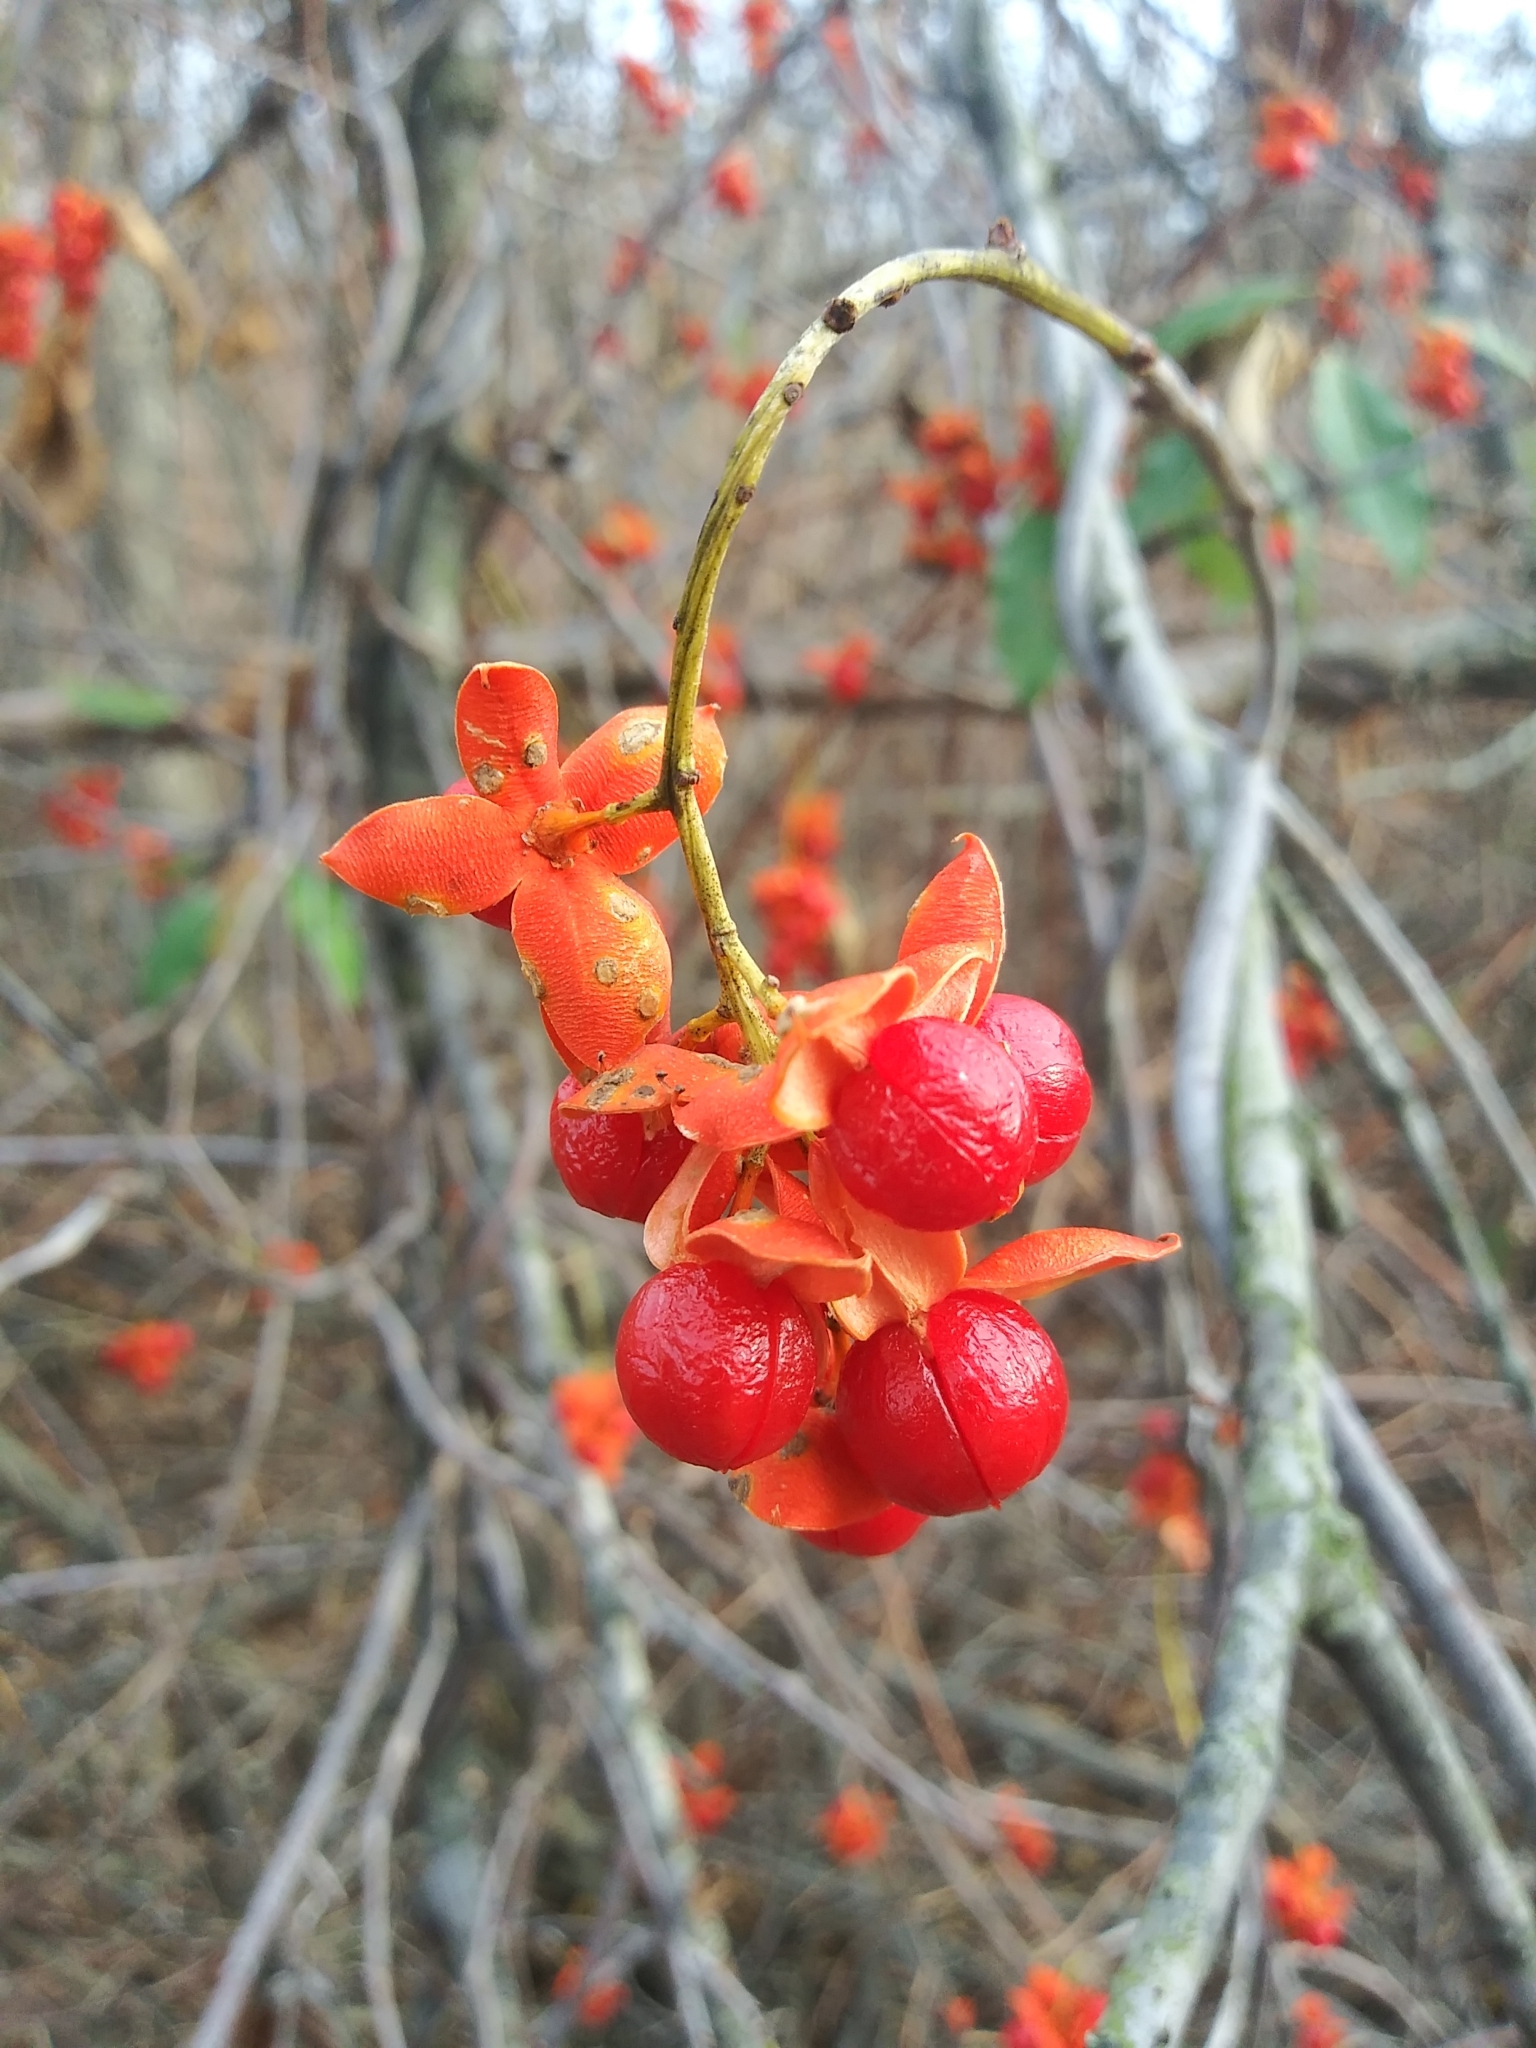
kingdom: Plantae
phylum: Tracheophyta
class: Magnoliopsida
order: Celastrales
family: Celastraceae
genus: Celastrus
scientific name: Celastrus scandens
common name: American bittersweet
